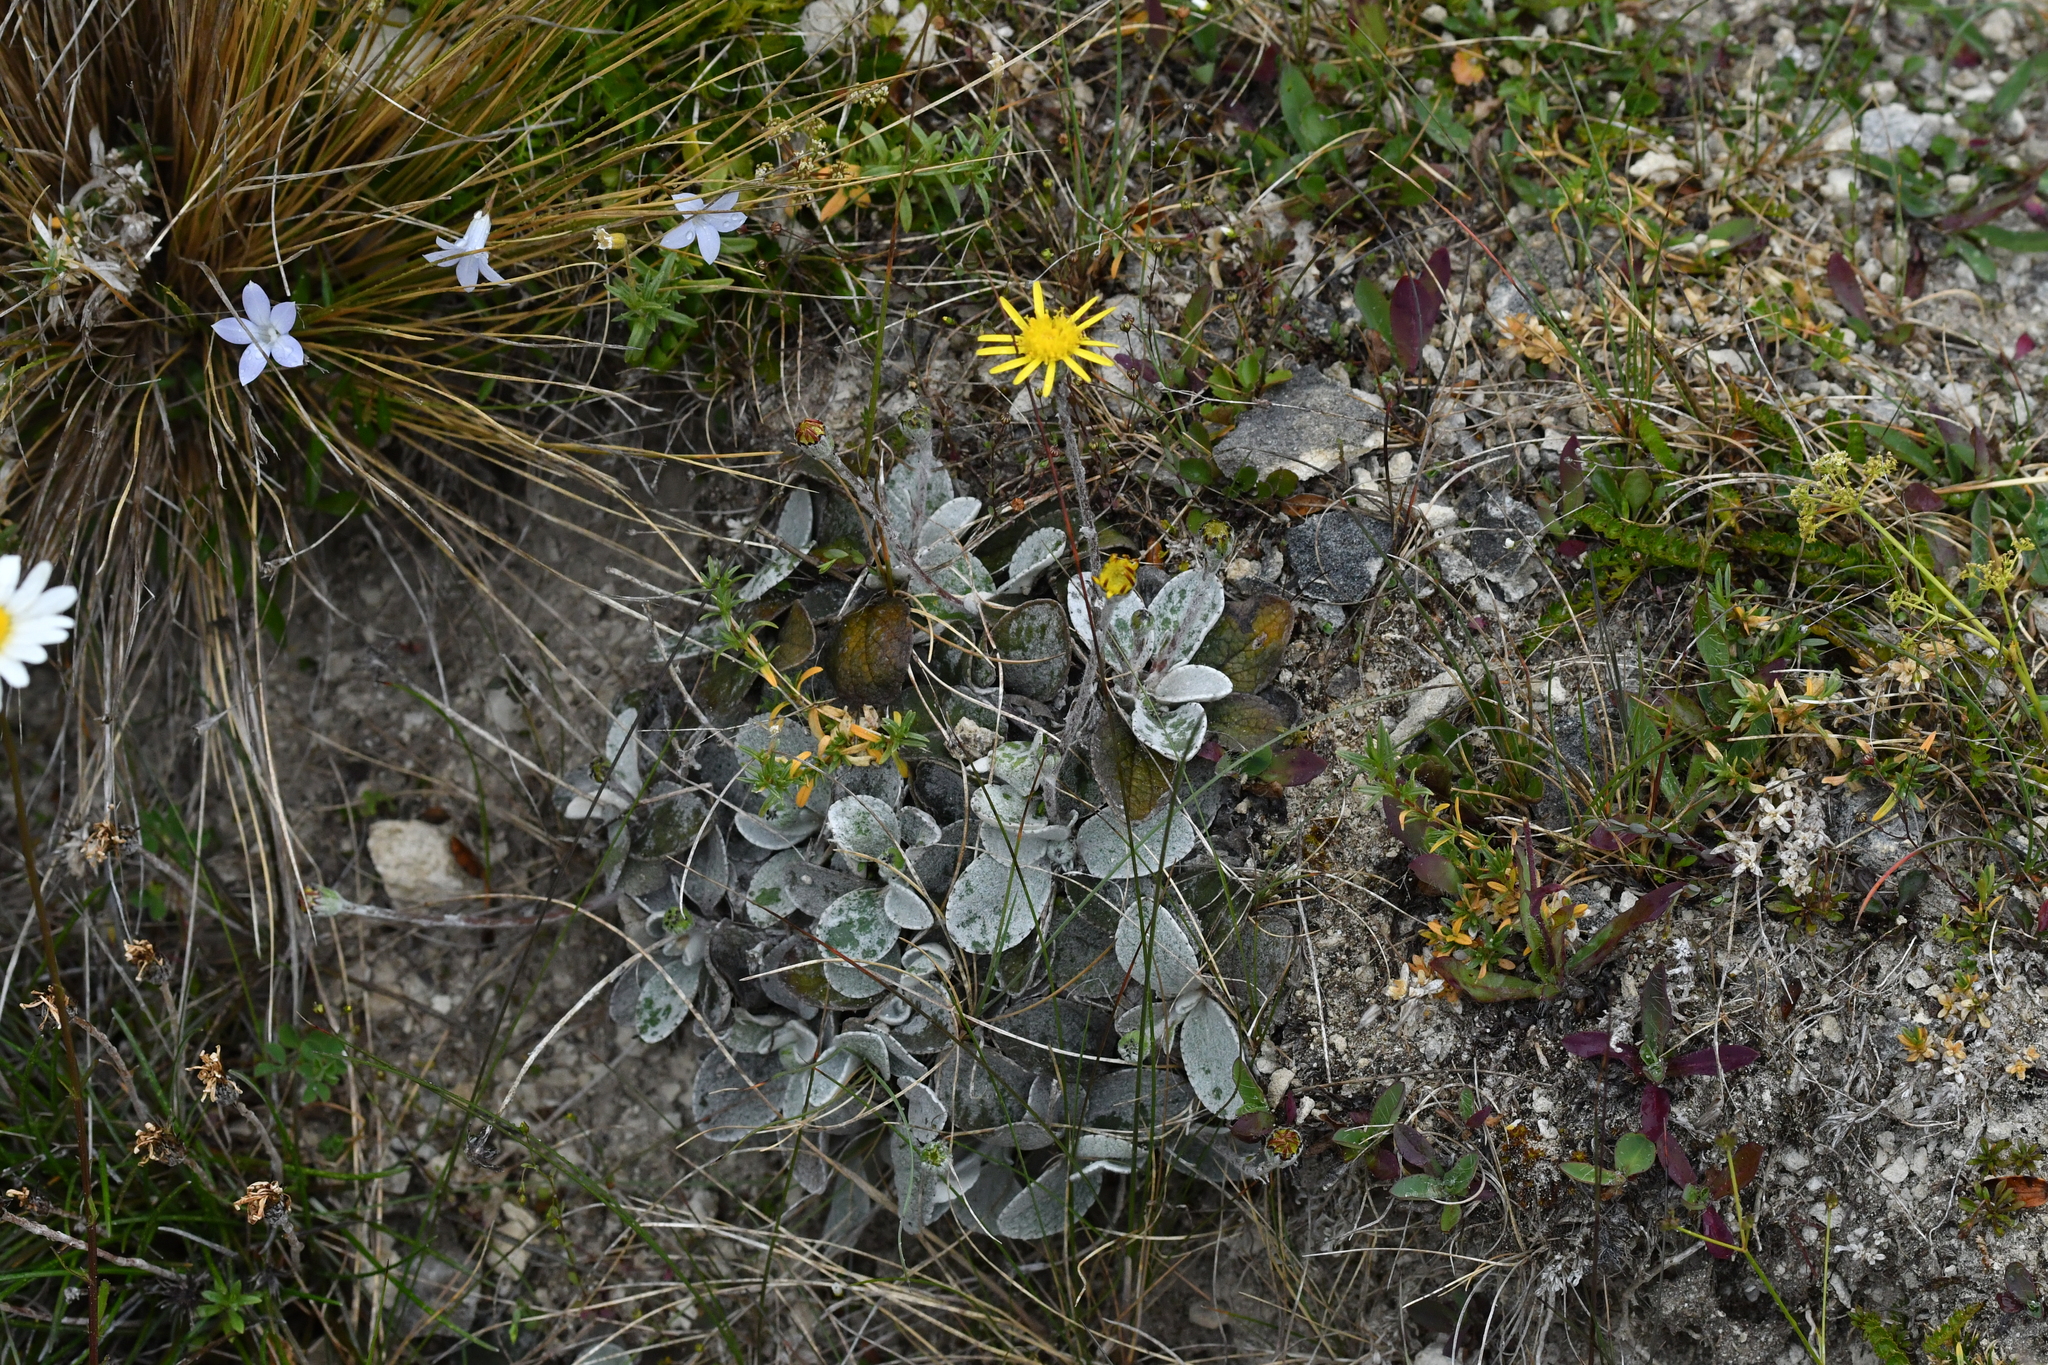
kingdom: Plantae
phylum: Tracheophyta
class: Magnoliopsida
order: Asterales
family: Asteraceae
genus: Brachyglottis
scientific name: Brachyglottis haastii
